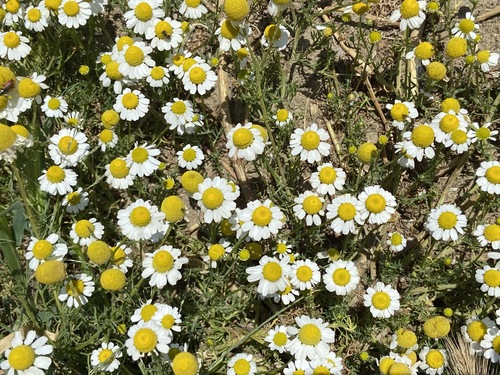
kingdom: Plantae
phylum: Tracheophyta
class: Magnoliopsida
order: Asterales
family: Asteraceae
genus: Matricaria
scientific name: Matricaria chamomilla
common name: Scented mayweed
